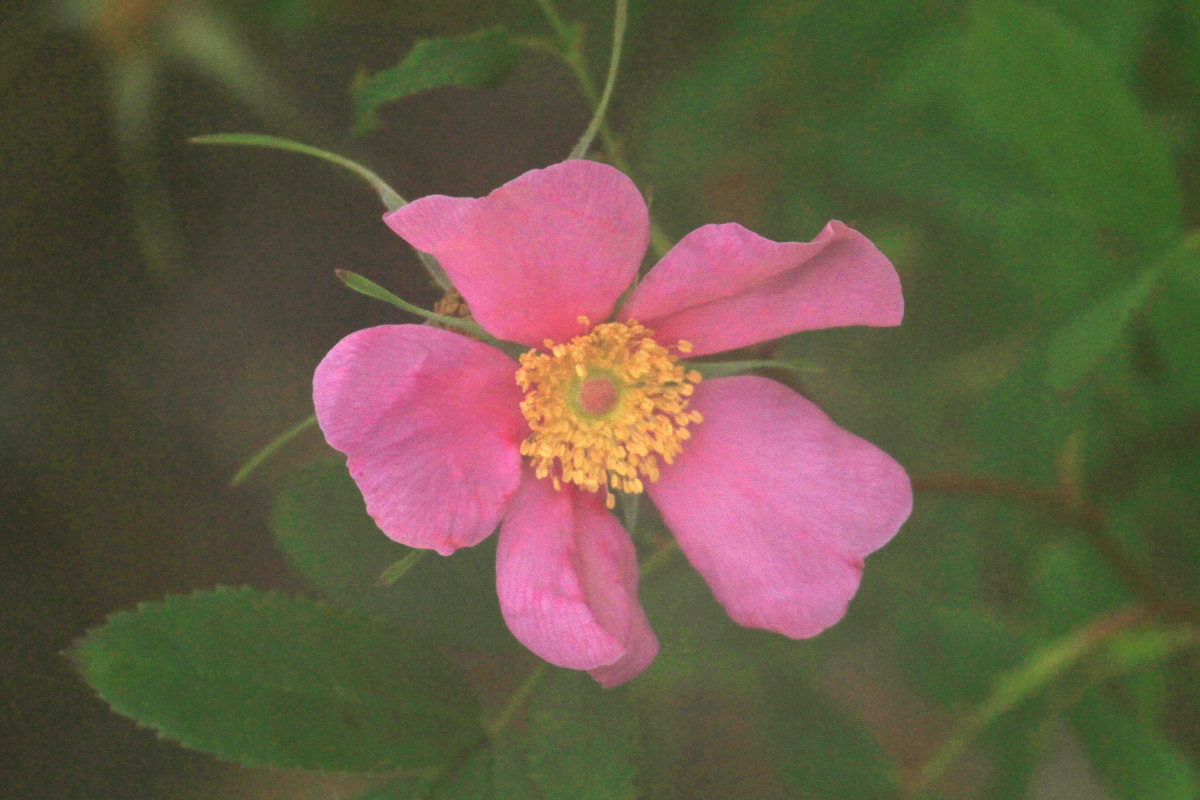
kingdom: Plantae
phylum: Tracheophyta
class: Magnoliopsida
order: Rosales
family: Rosaceae
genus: Rosa
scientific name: Rosa carolina
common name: Pasture rose
